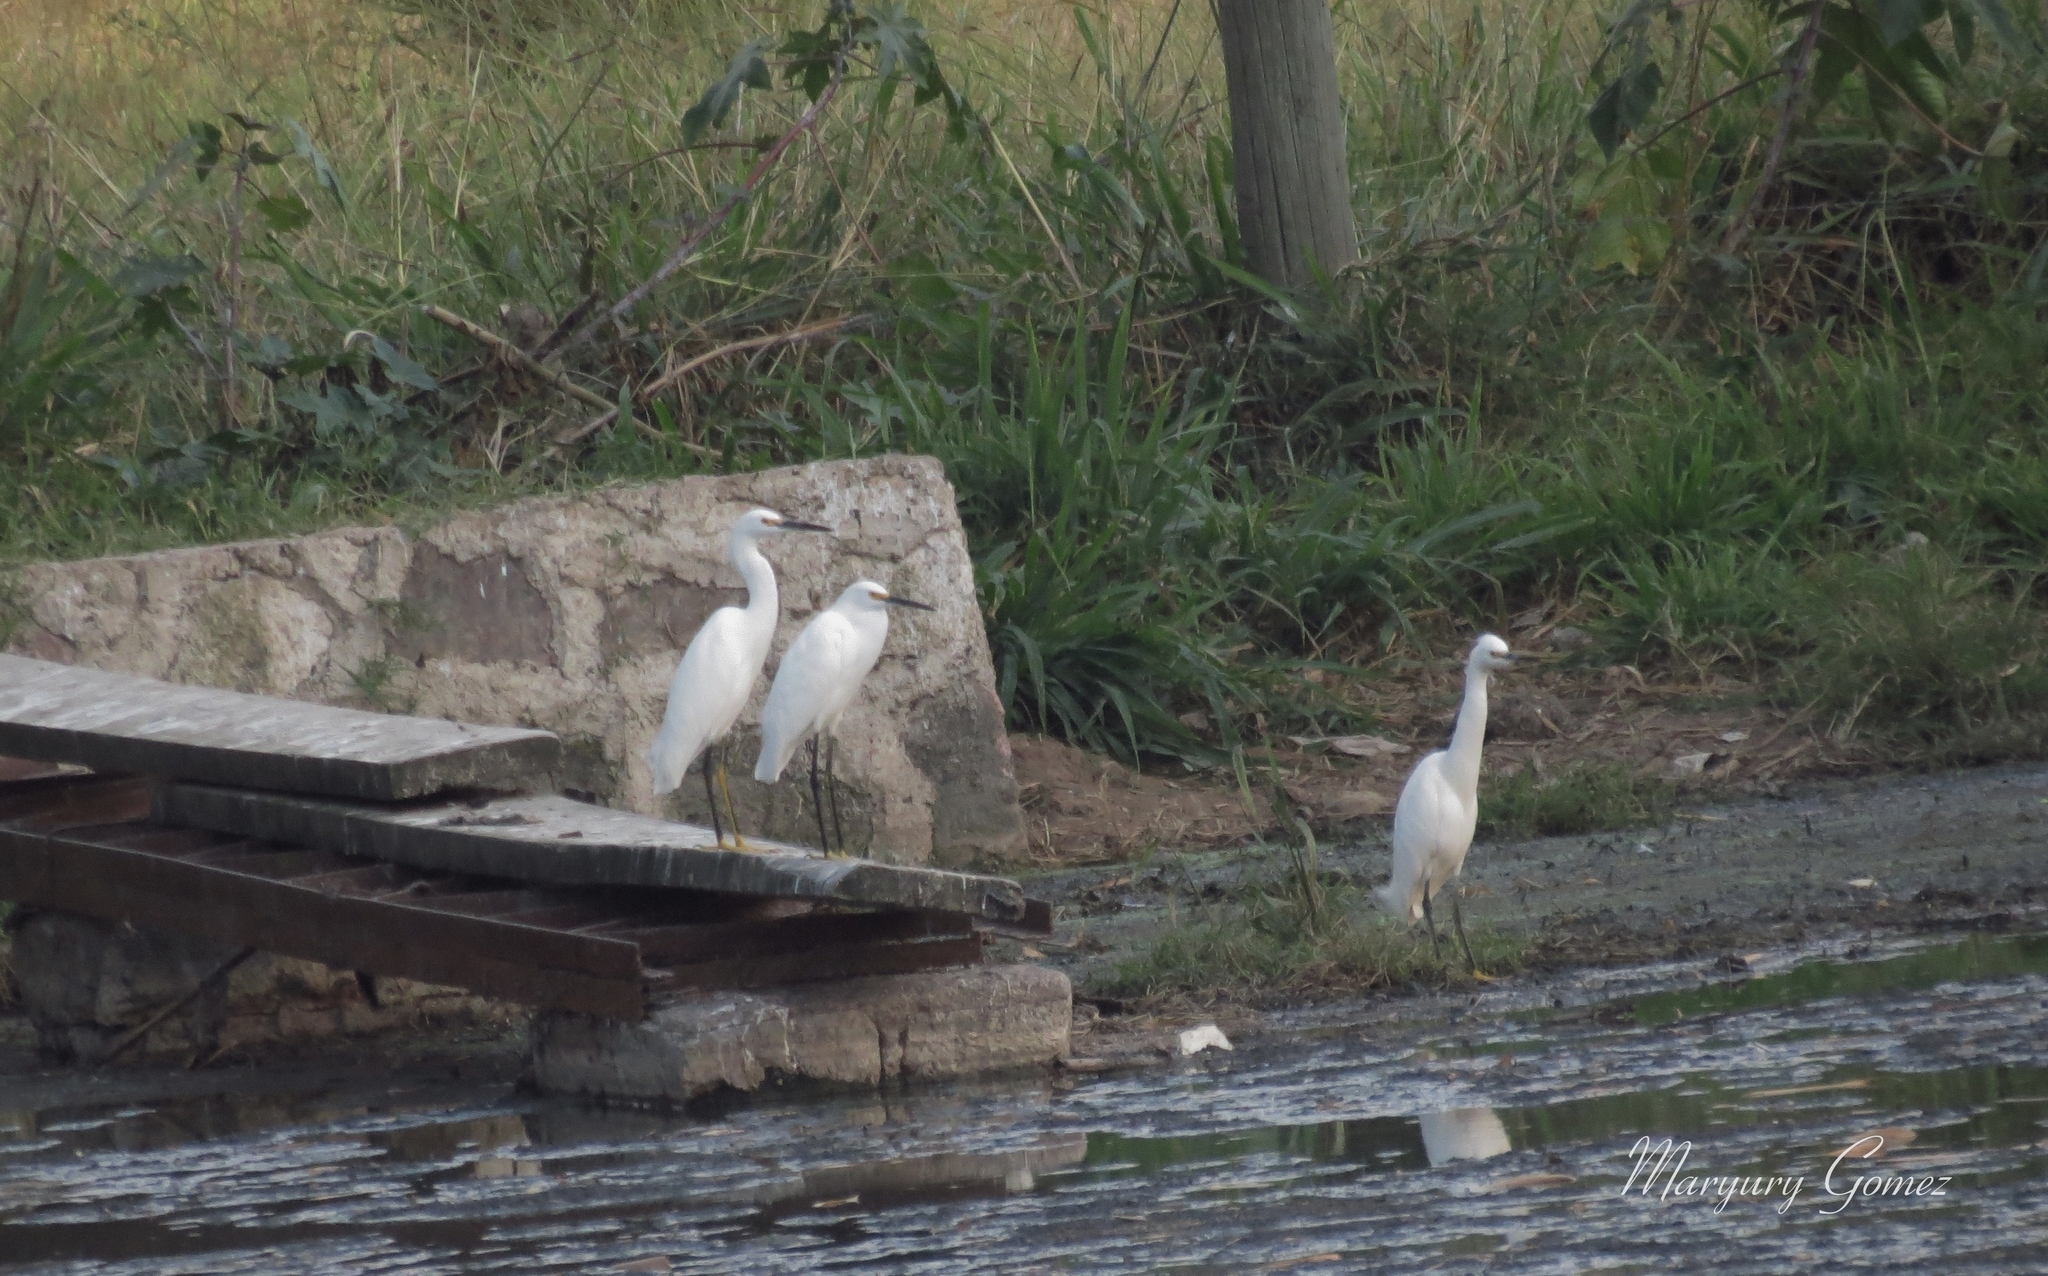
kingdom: Animalia
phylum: Chordata
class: Aves
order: Pelecaniformes
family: Ardeidae
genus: Egretta
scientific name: Egretta thula
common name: Snowy egret
